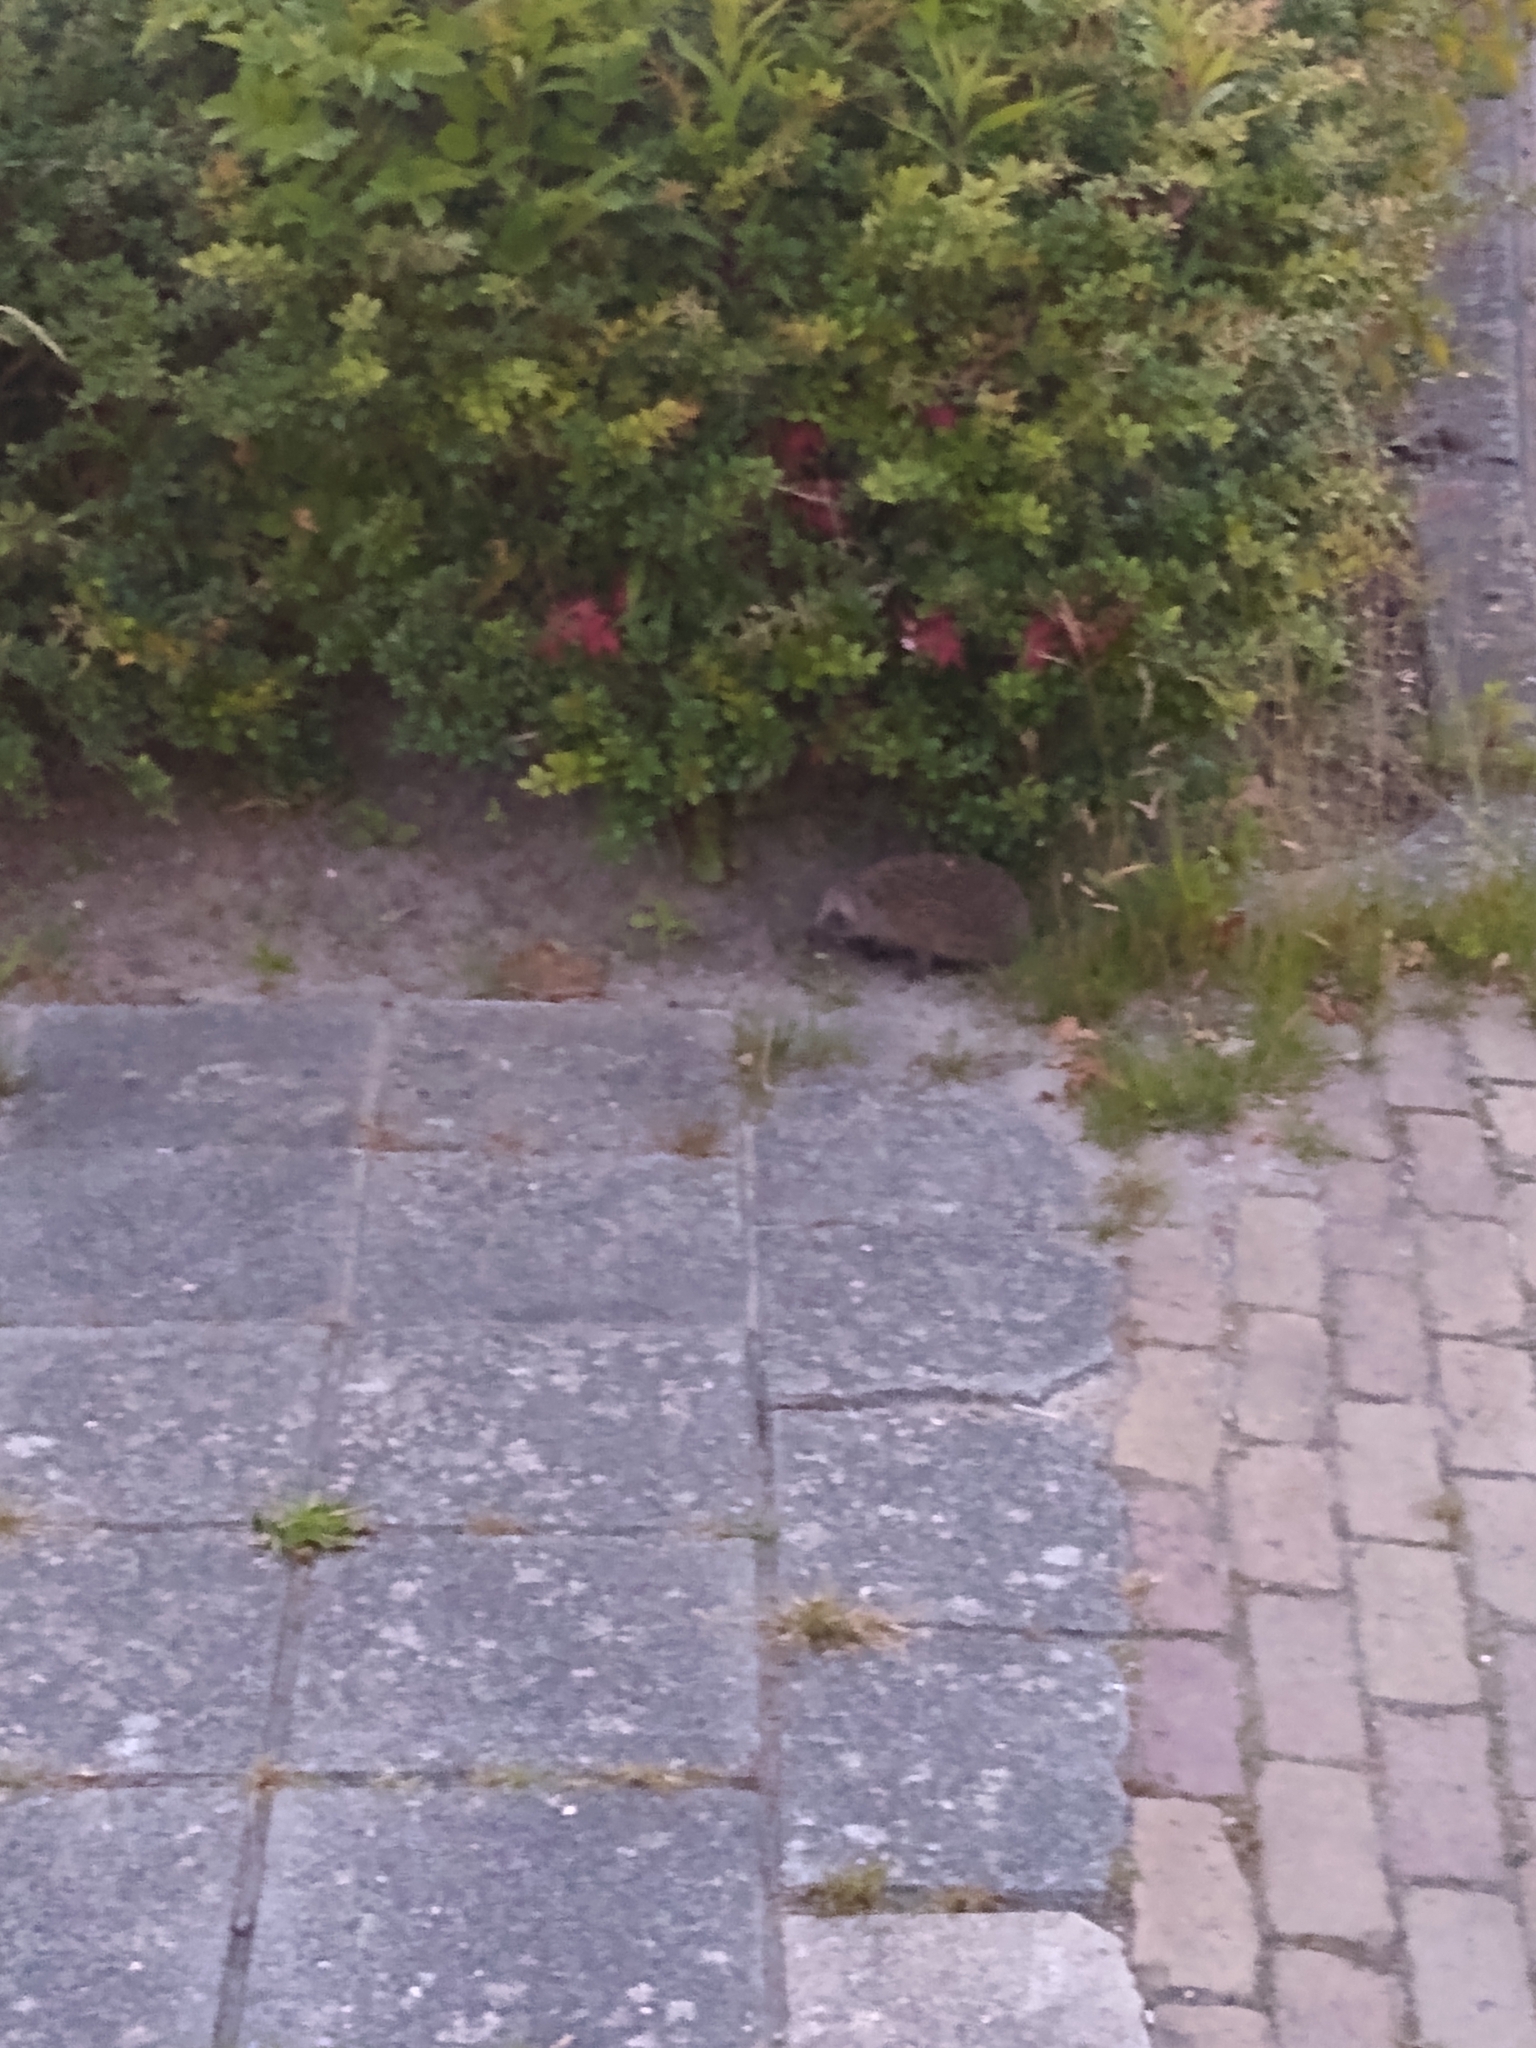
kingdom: Animalia
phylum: Chordata
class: Mammalia
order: Erinaceomorpha
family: Erinaceidae
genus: Erinaceus
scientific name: Erinaceus europaeus
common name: West european hedgehog
